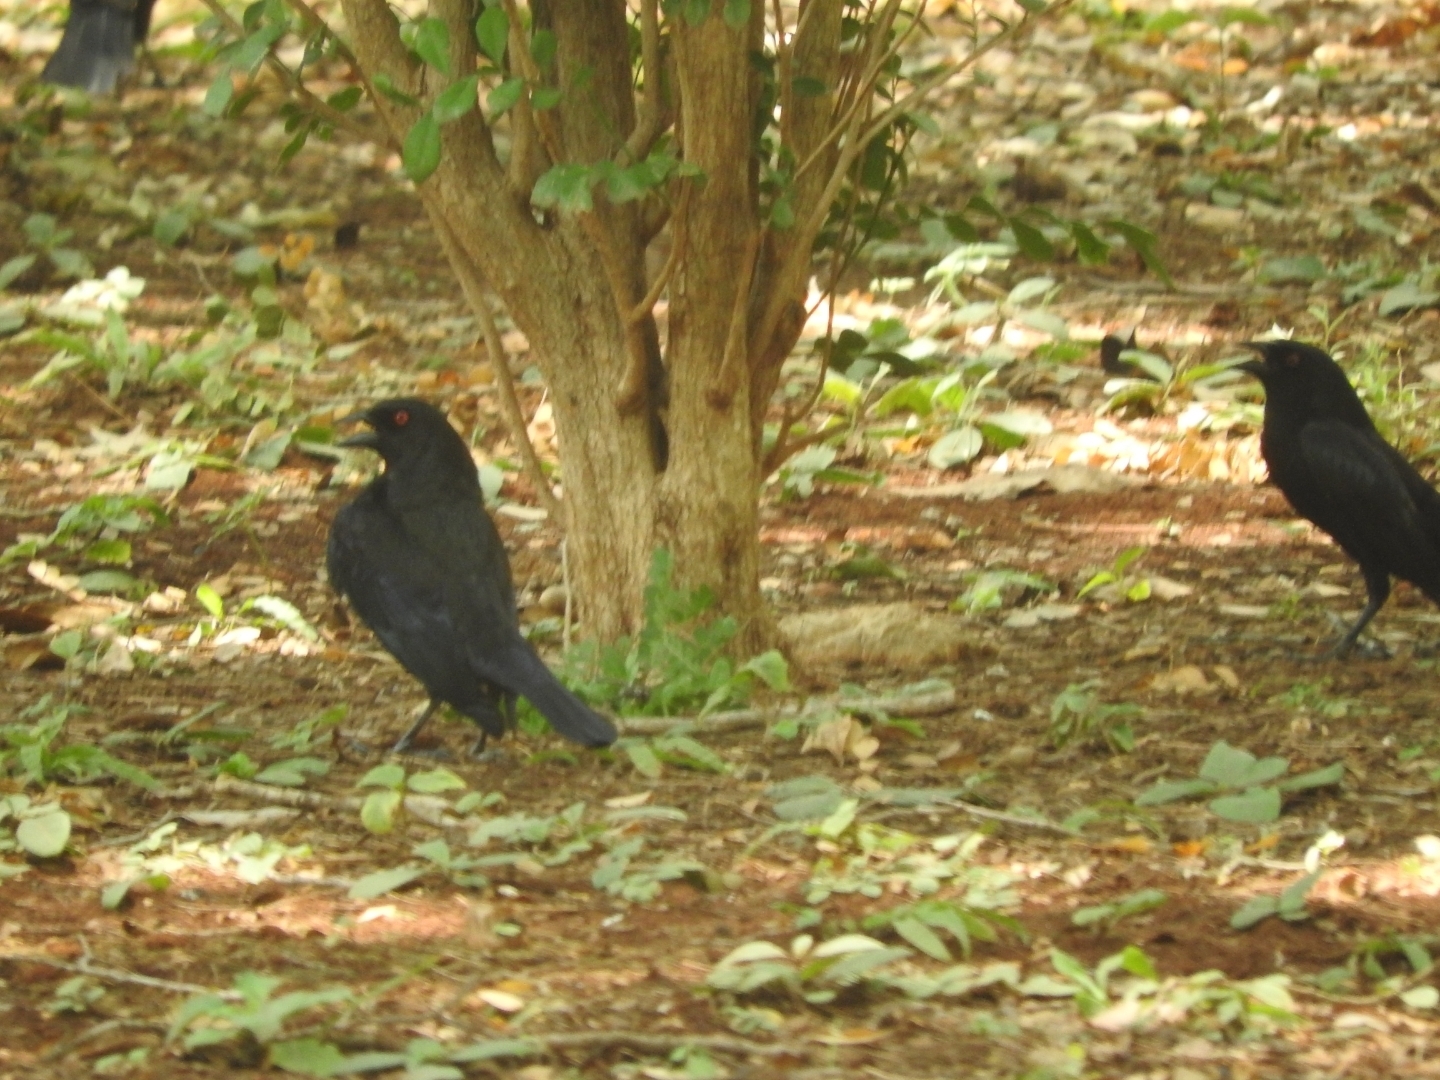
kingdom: Animalia
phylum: Chordata
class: Aves
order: Passeriformes
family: Icteridae
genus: Molothrus
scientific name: Molothrus aeneus
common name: Bronzed cowbird
